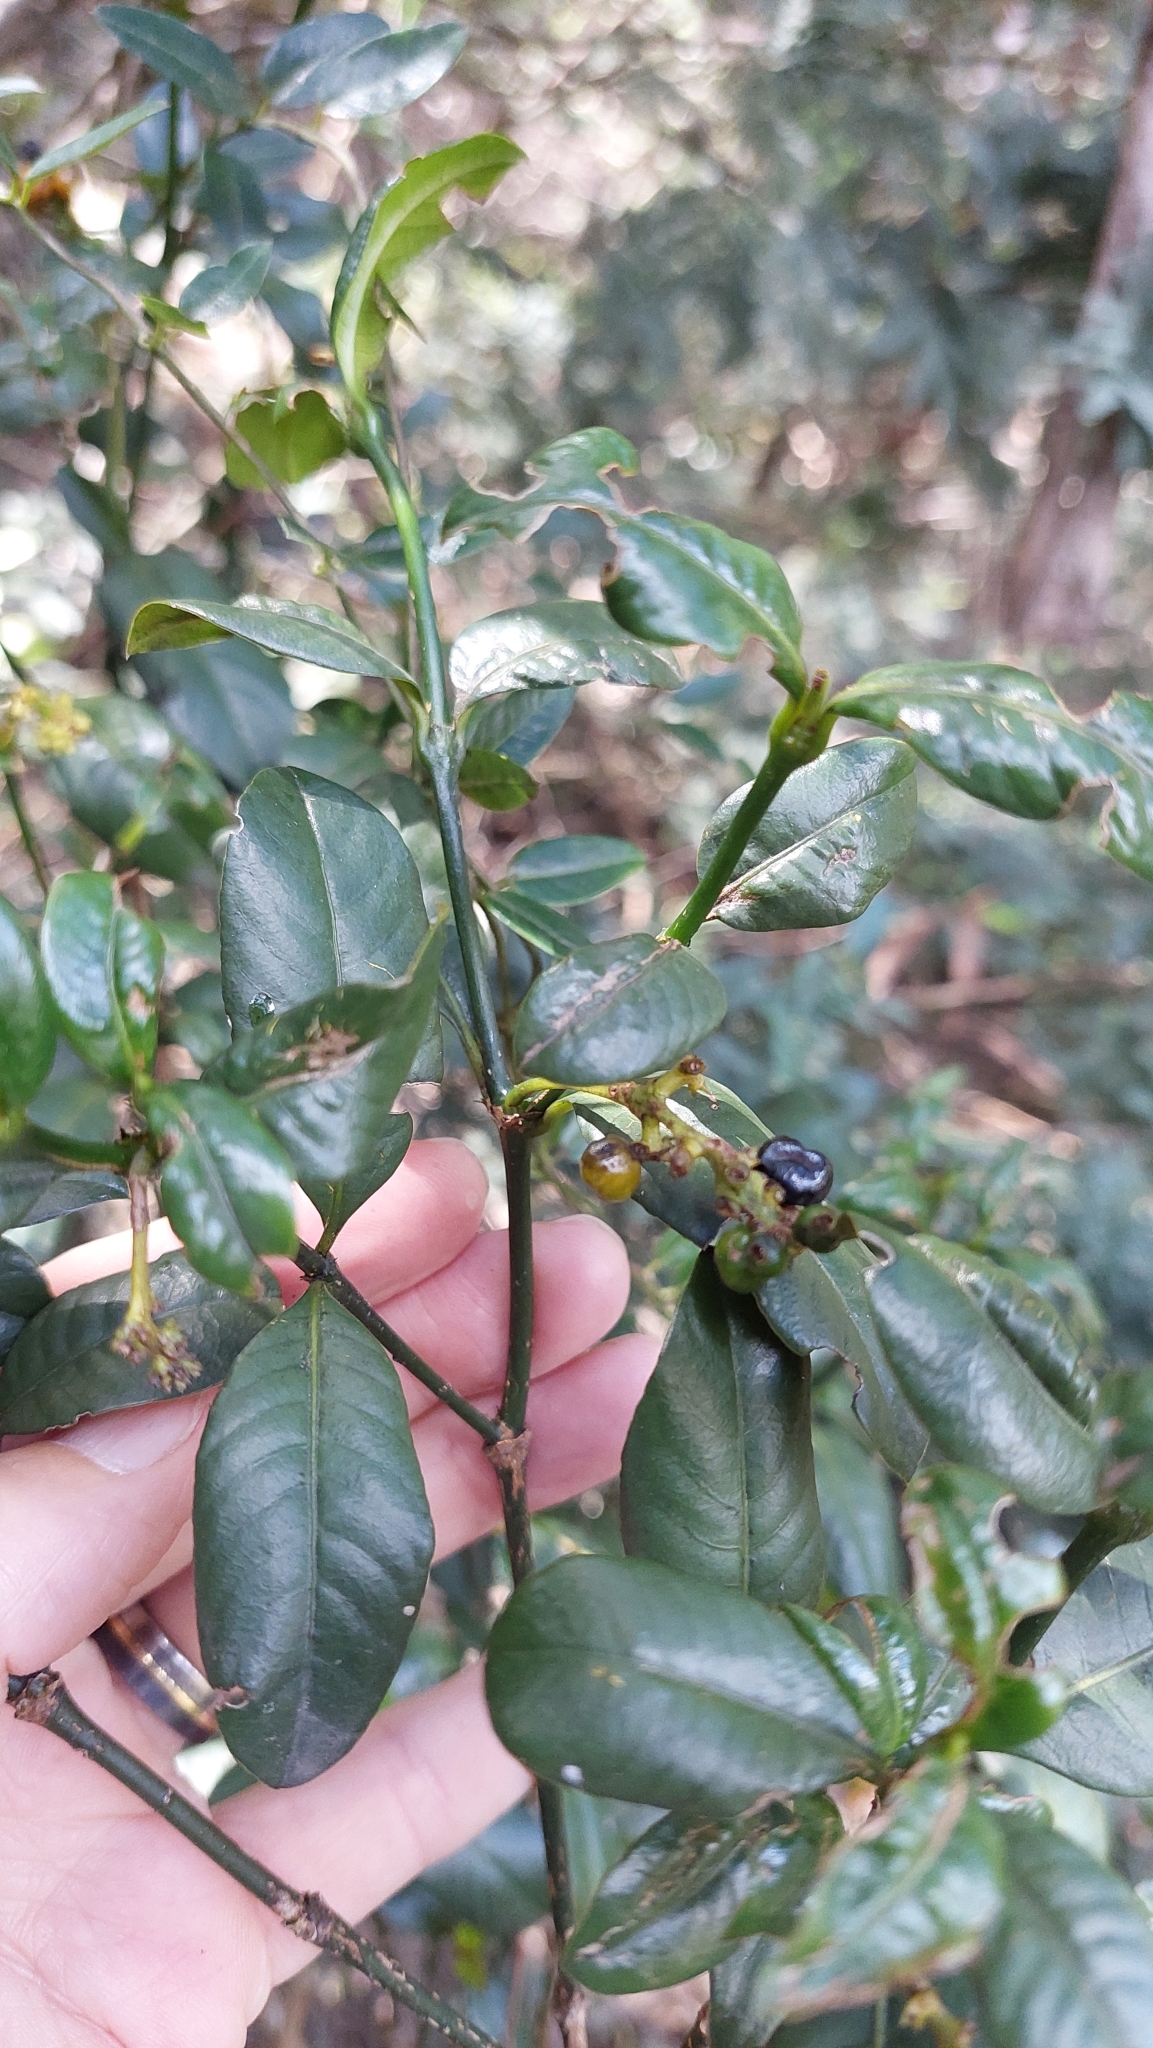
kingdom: Plantae
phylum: Tracheophyta
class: Magnoliopsida
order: Gentianales
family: Rubiaceae
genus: Palicourea
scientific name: Palicourea boqueronensis
